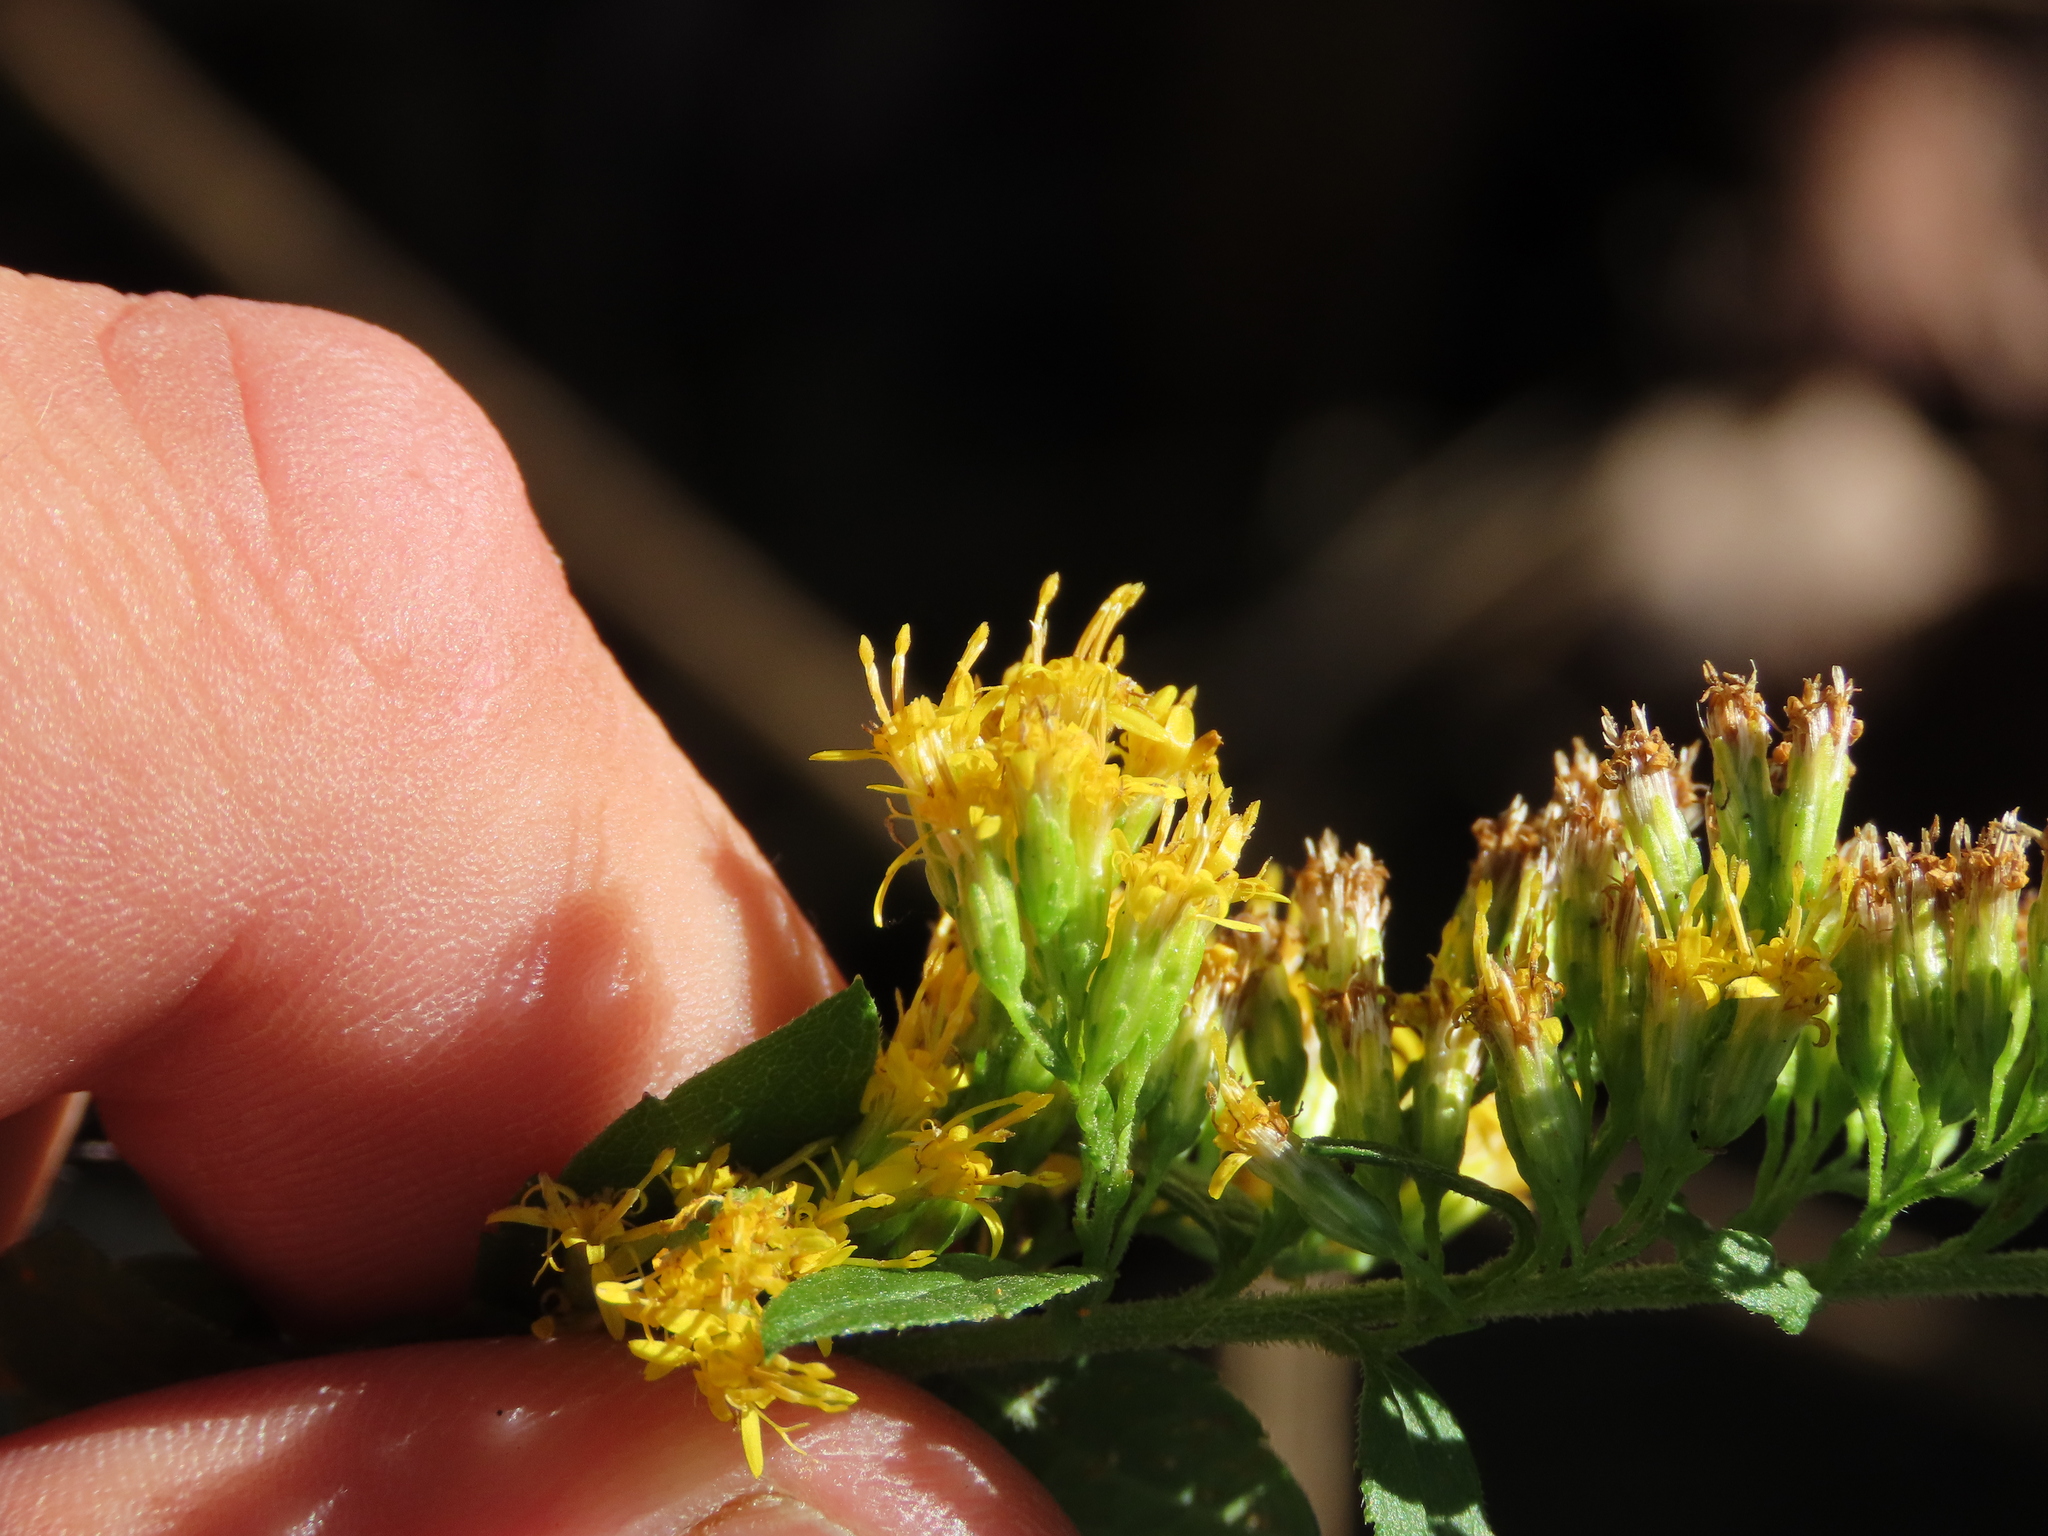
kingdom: Plantae
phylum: Tracheophyta
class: Magnoliopsida
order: Asterales
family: Asteraceae
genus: Solidago
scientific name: Solidago rugosa
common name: Rough-stemmed goldenrod
